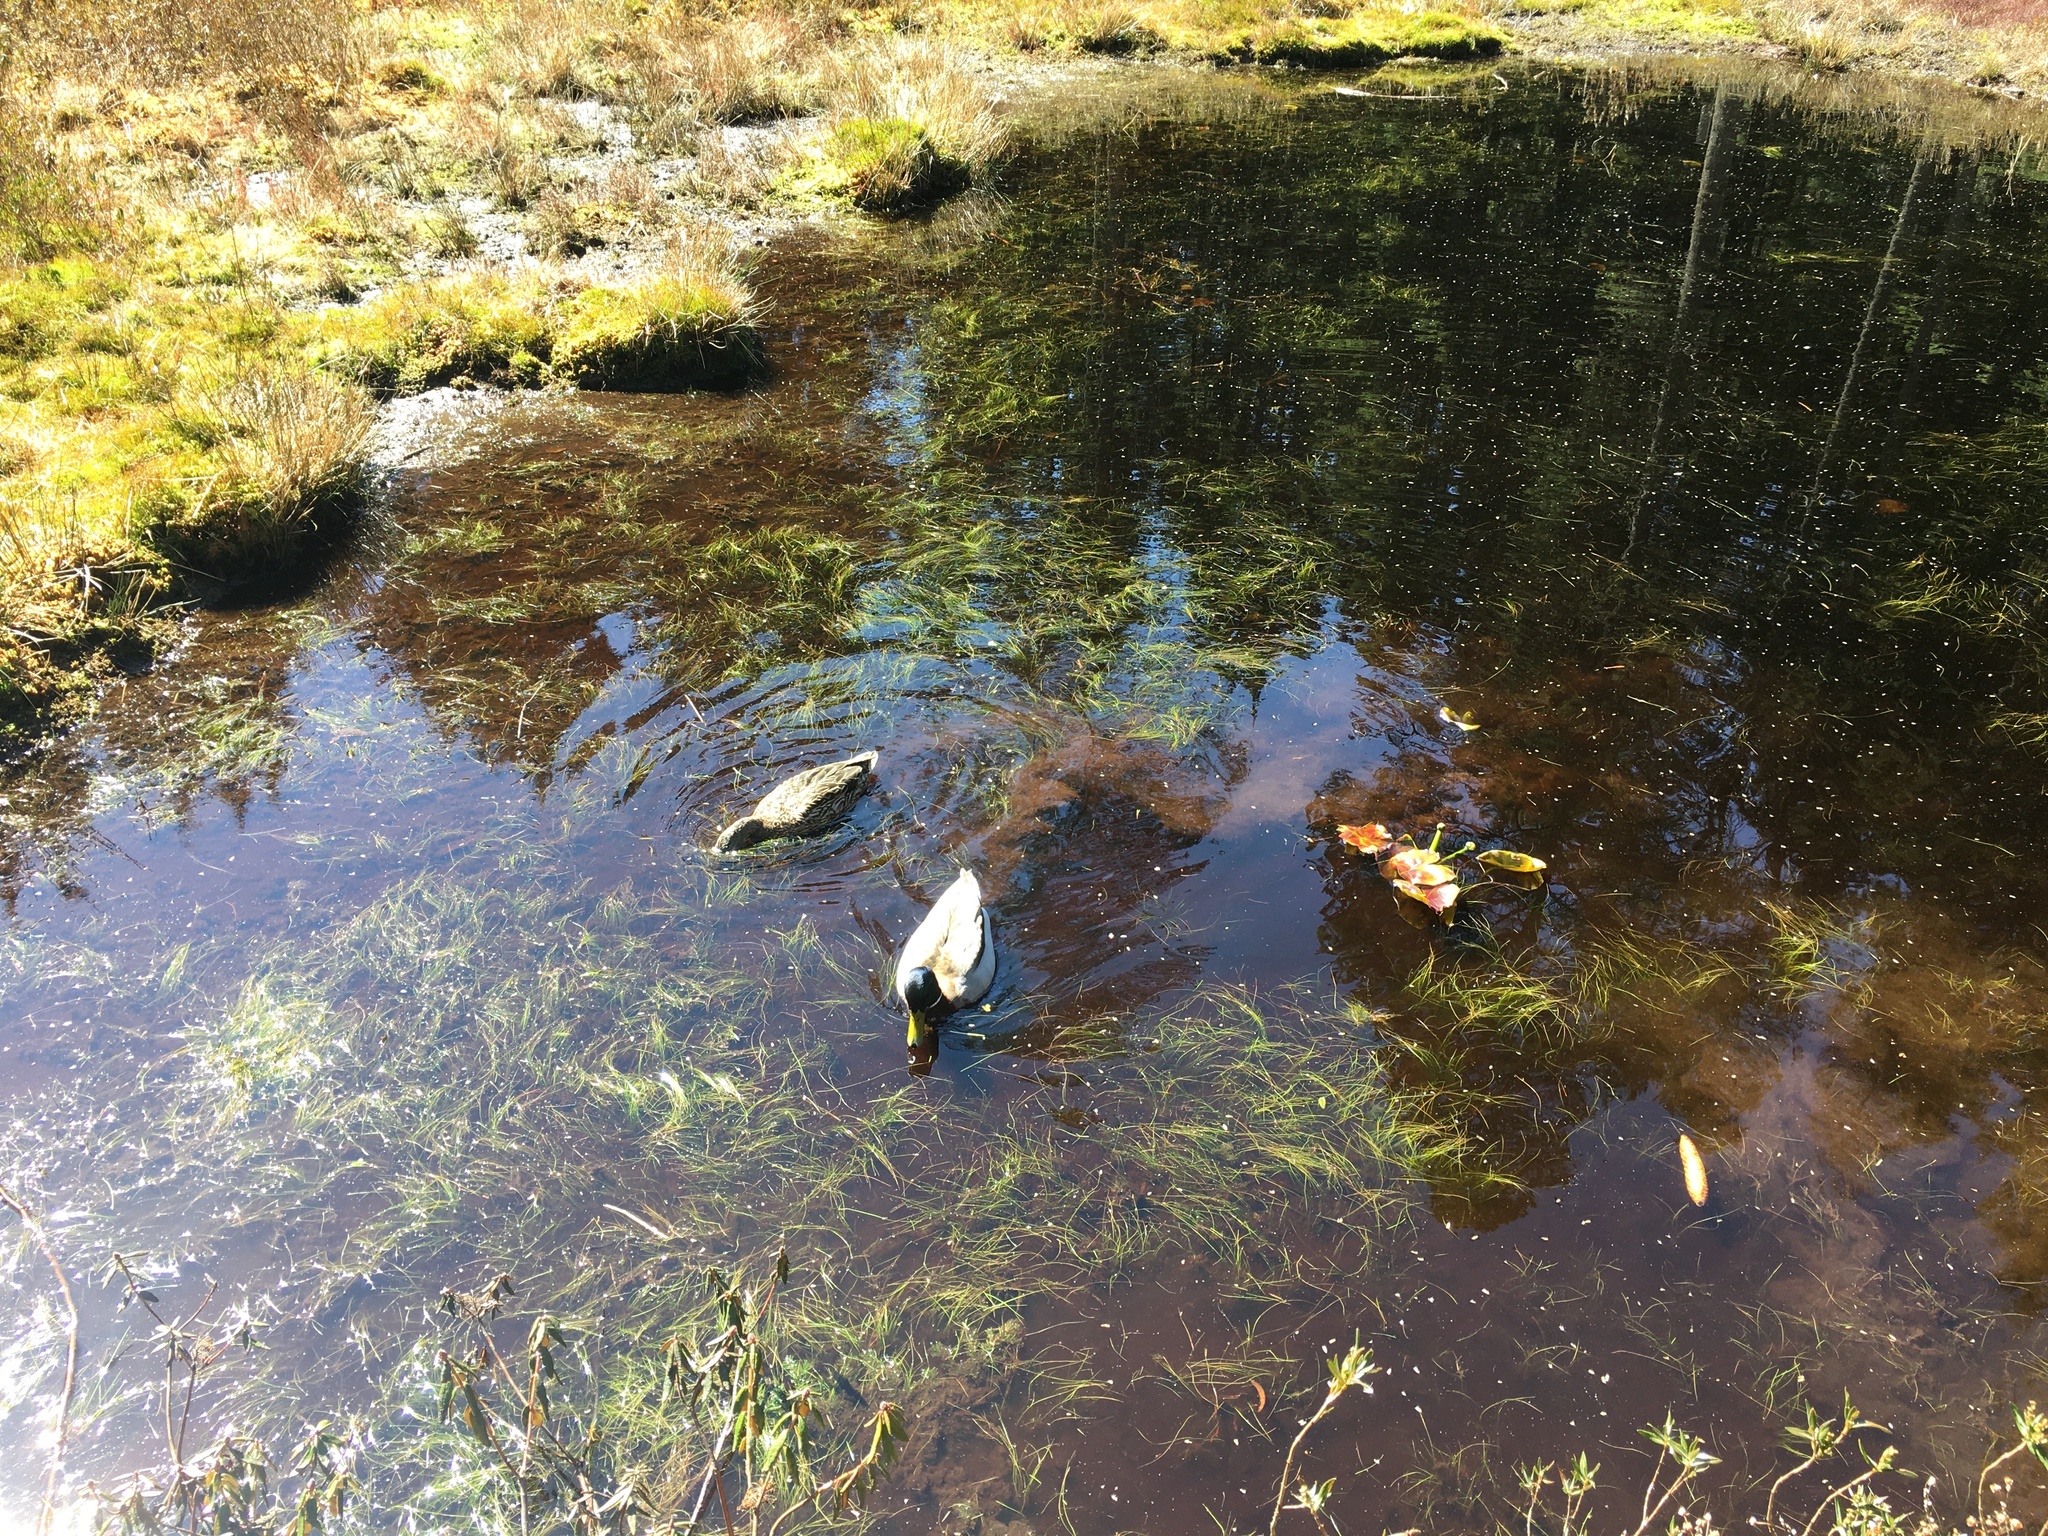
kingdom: Animalia
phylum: Chordata
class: Aves
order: Anseriformes
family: Anatidae
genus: Anas
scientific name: Anas platyrhynchos
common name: Mallard
